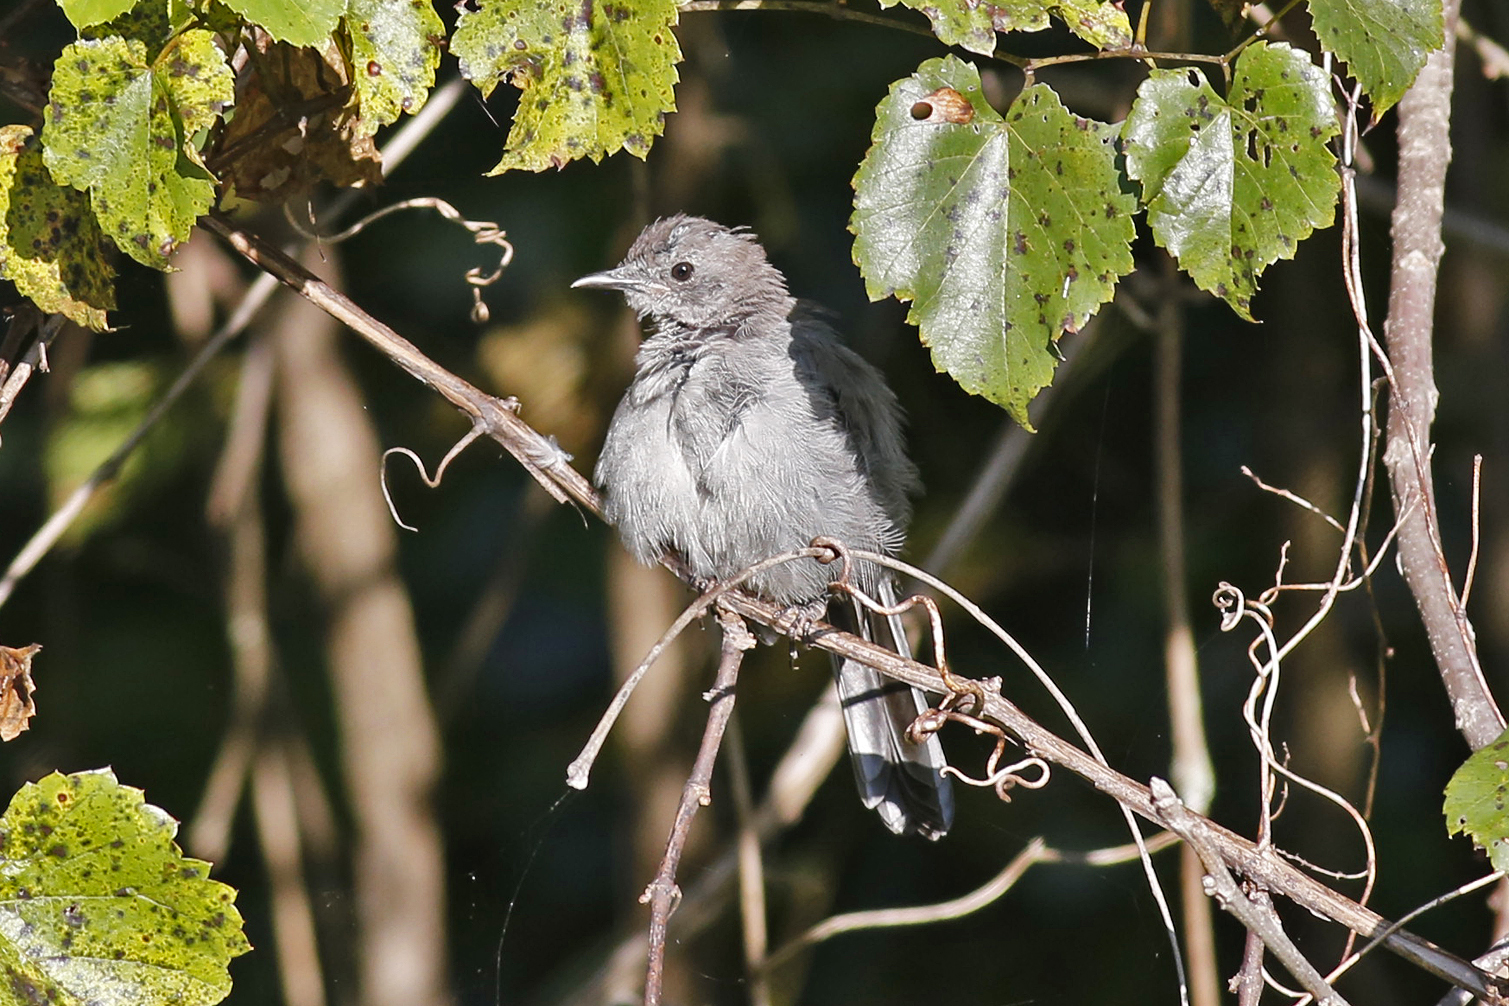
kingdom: Animalia
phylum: Chordata
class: Aves
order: Passeriformes
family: Mimidae
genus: Dumetella
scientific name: Dumetella carolinensis
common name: Gray catbird
